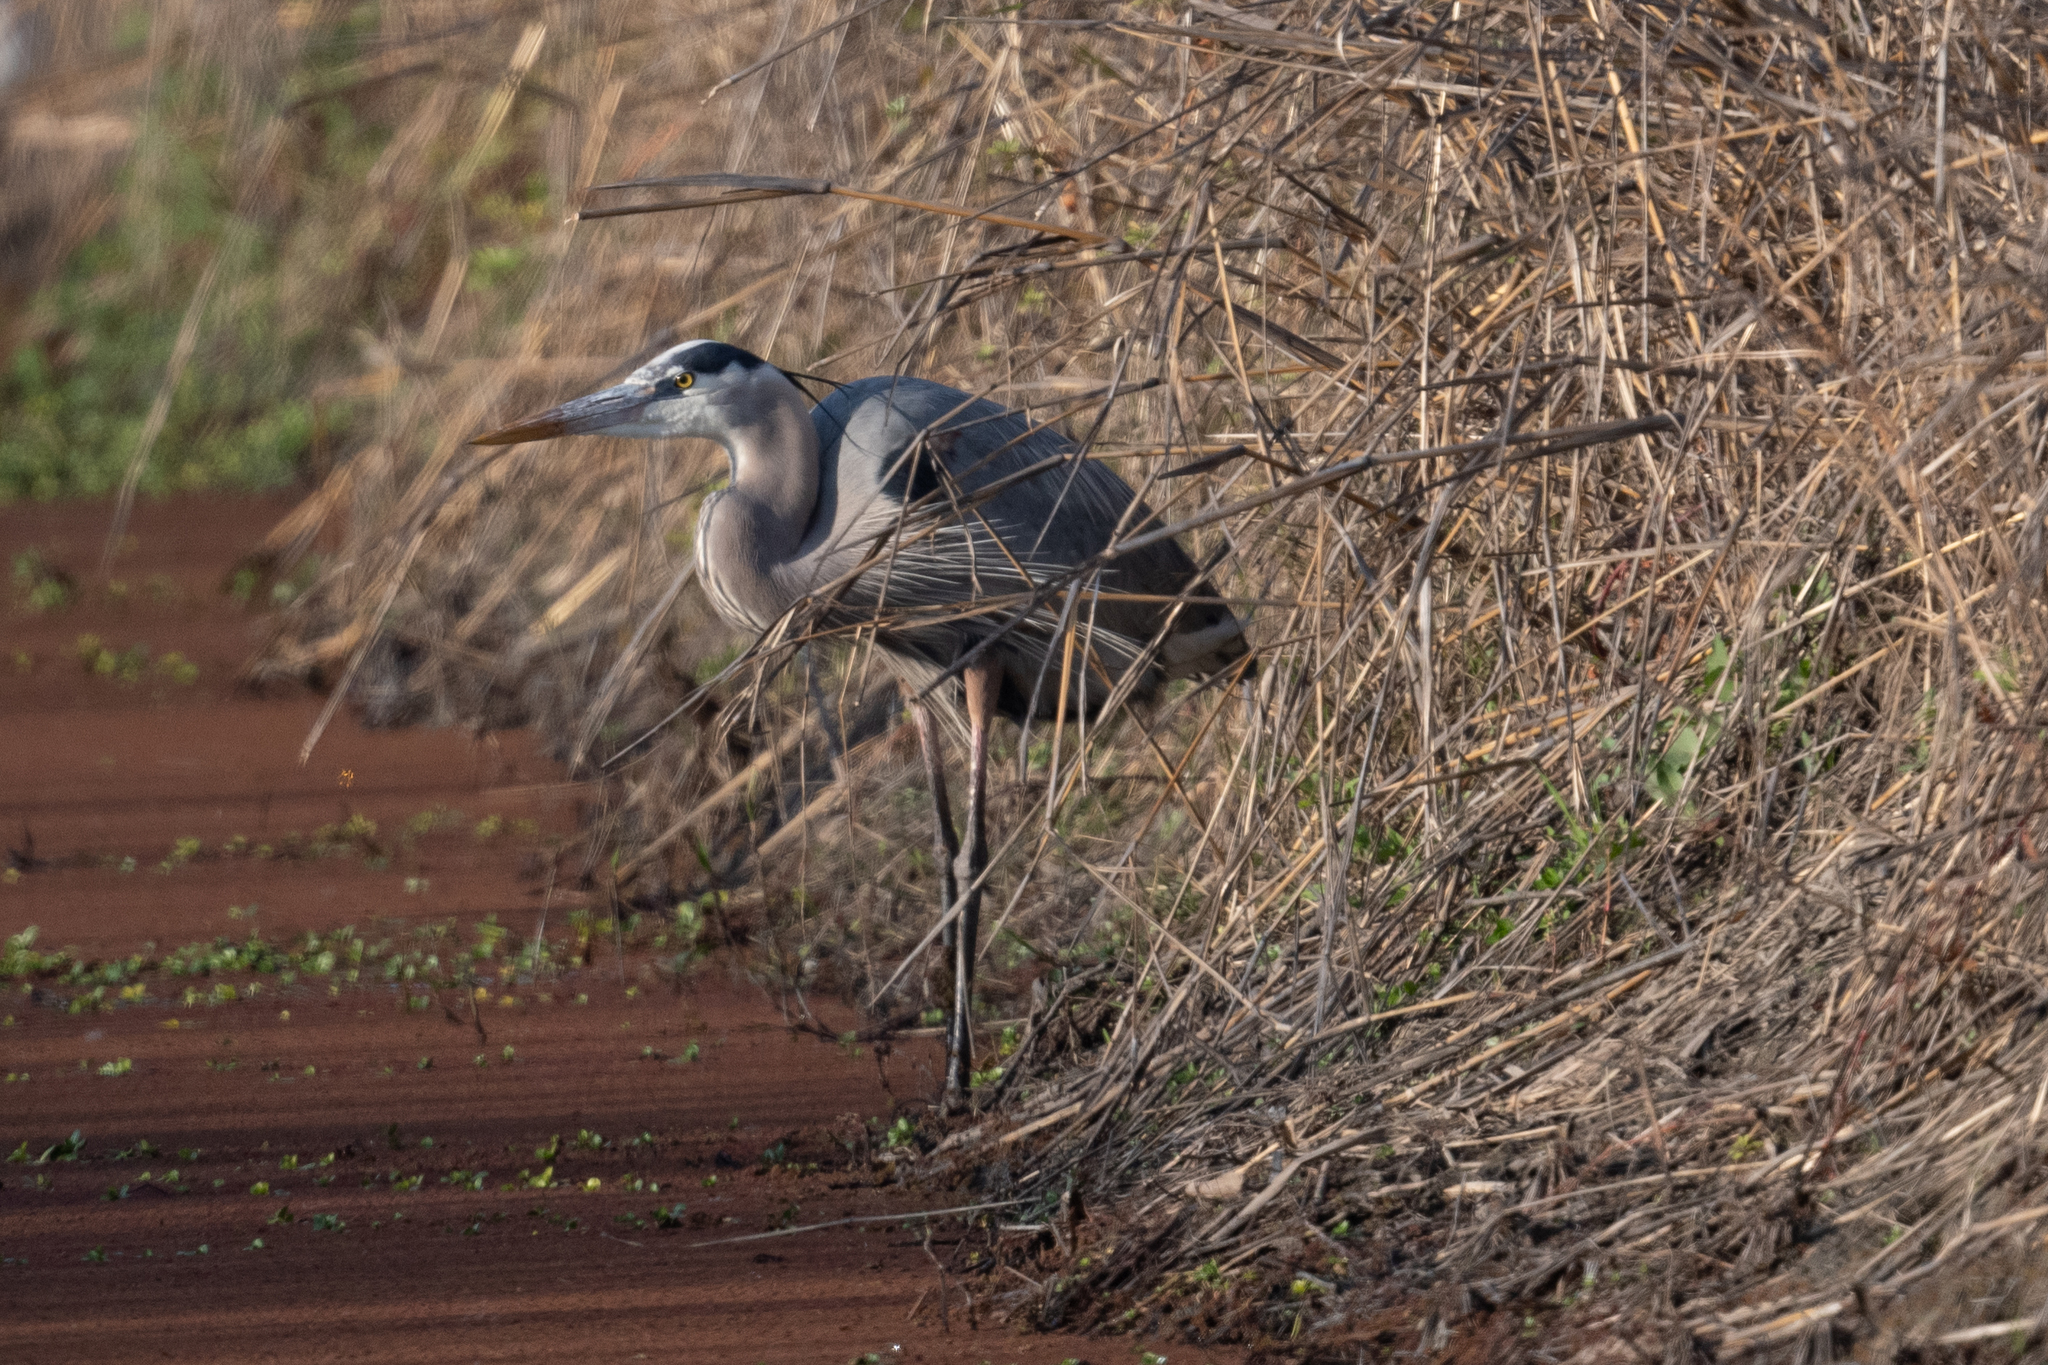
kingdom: Animalia
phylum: Chordata
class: Aves
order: Pelecaniformes
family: Ardeidae
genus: Ardea
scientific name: Ardea herodias
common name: Great blue heron
